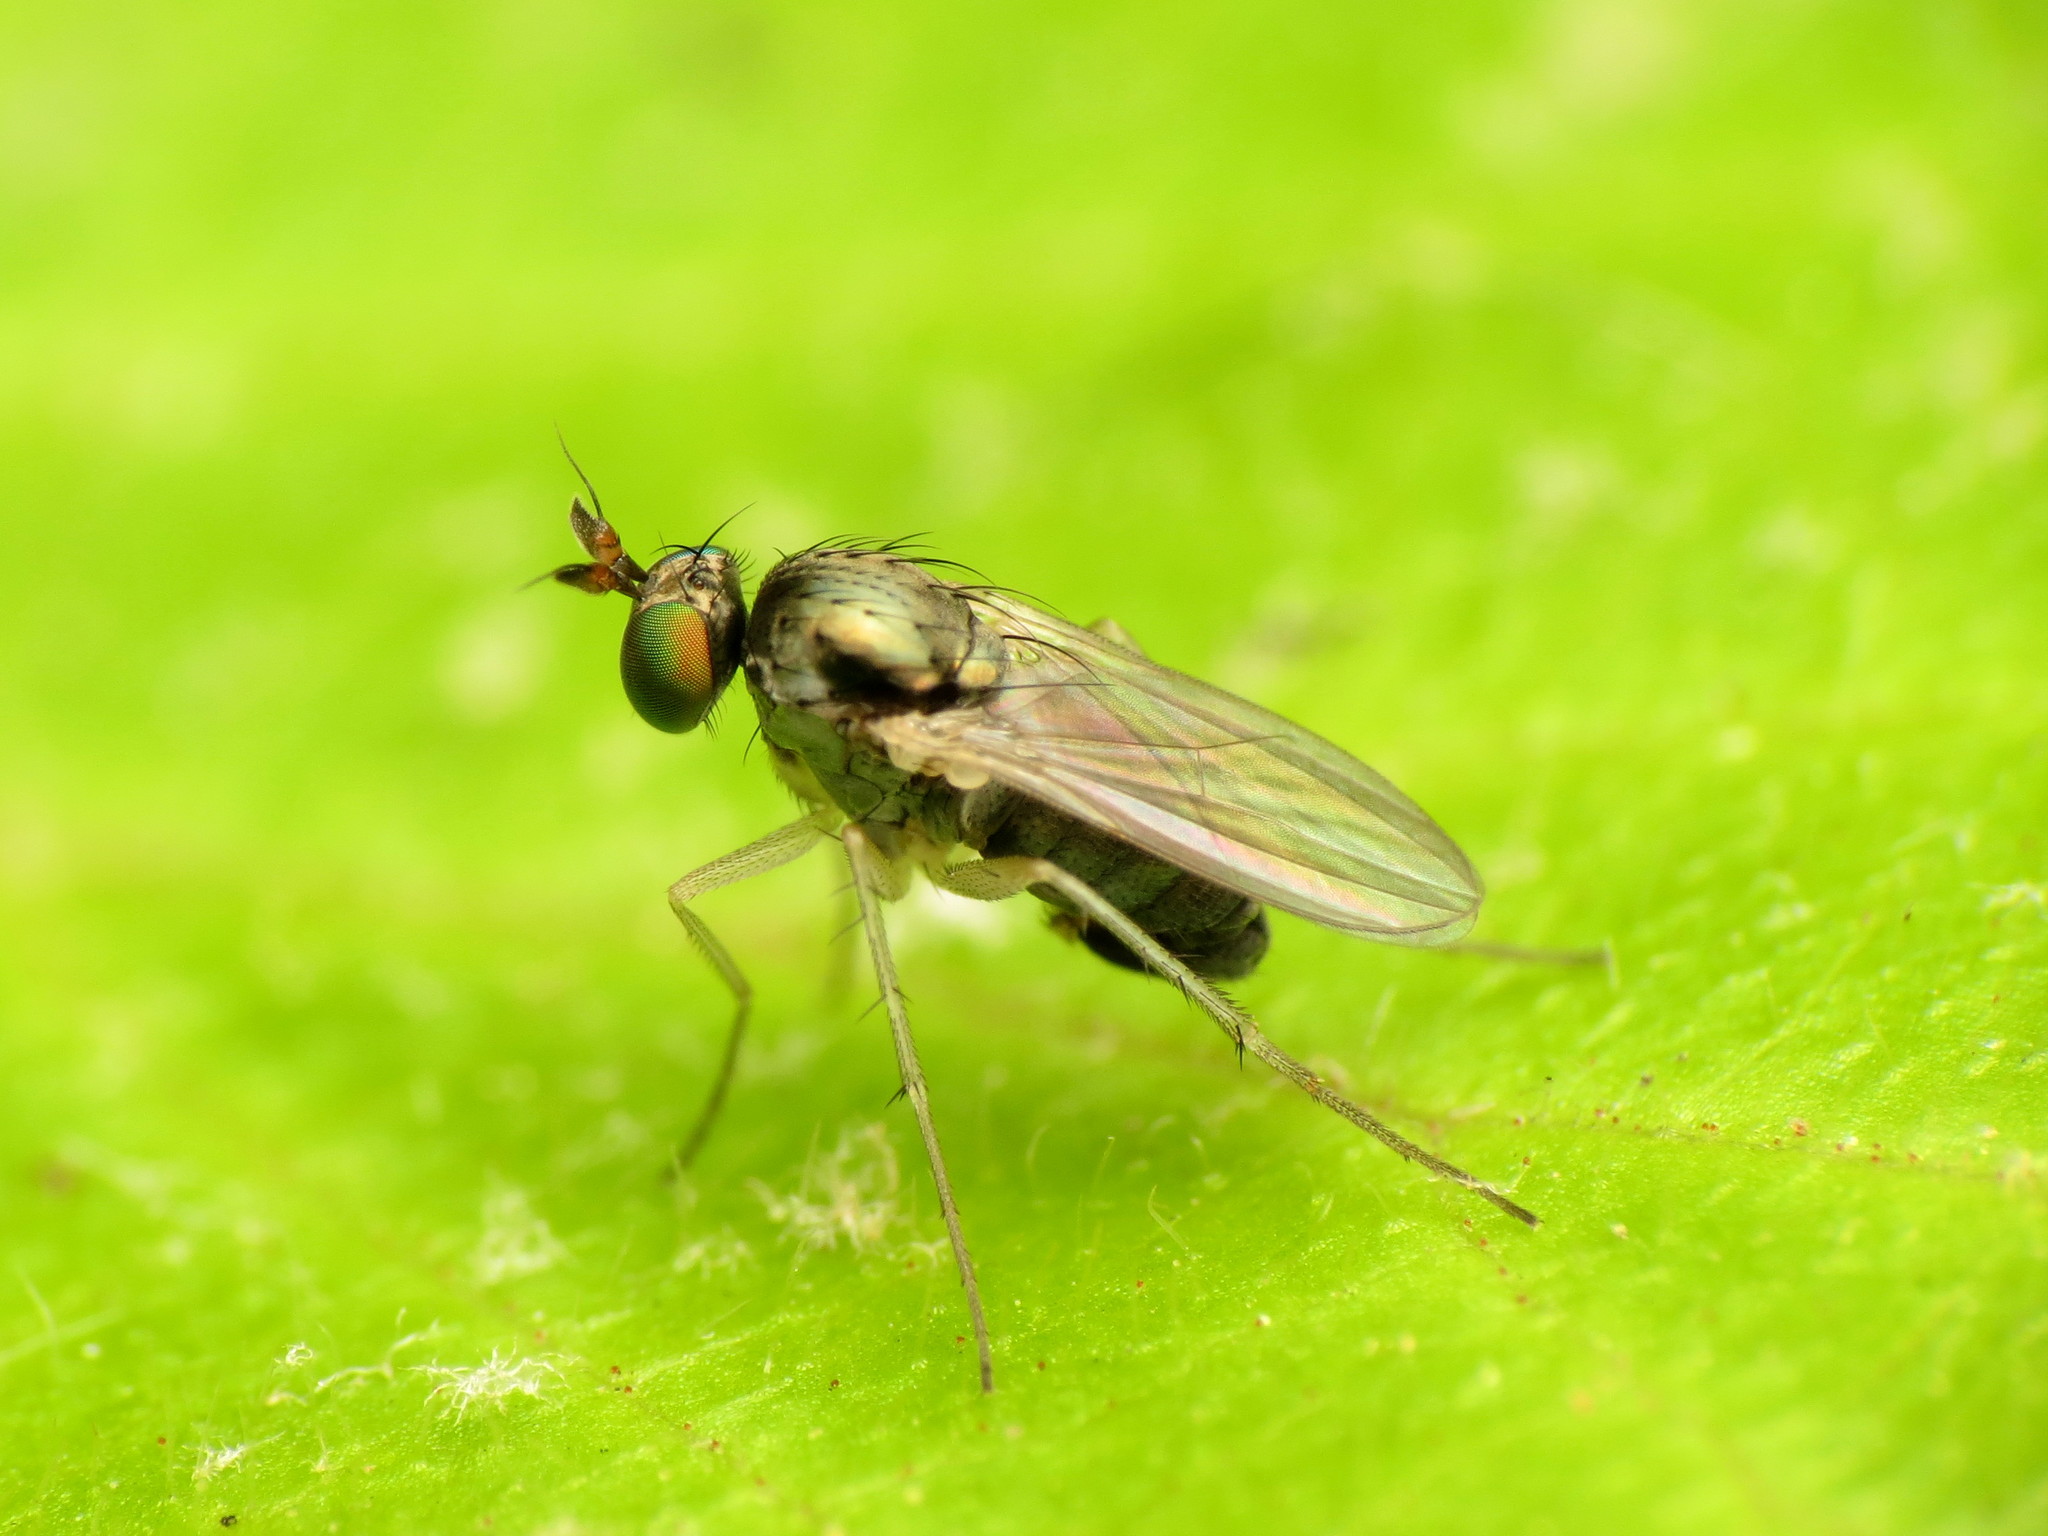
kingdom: Animalia
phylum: Arthropoda
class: Insecta
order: Diptera
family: Dolichopodidae
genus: Gymnopternus
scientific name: Gymnopternus opacus
